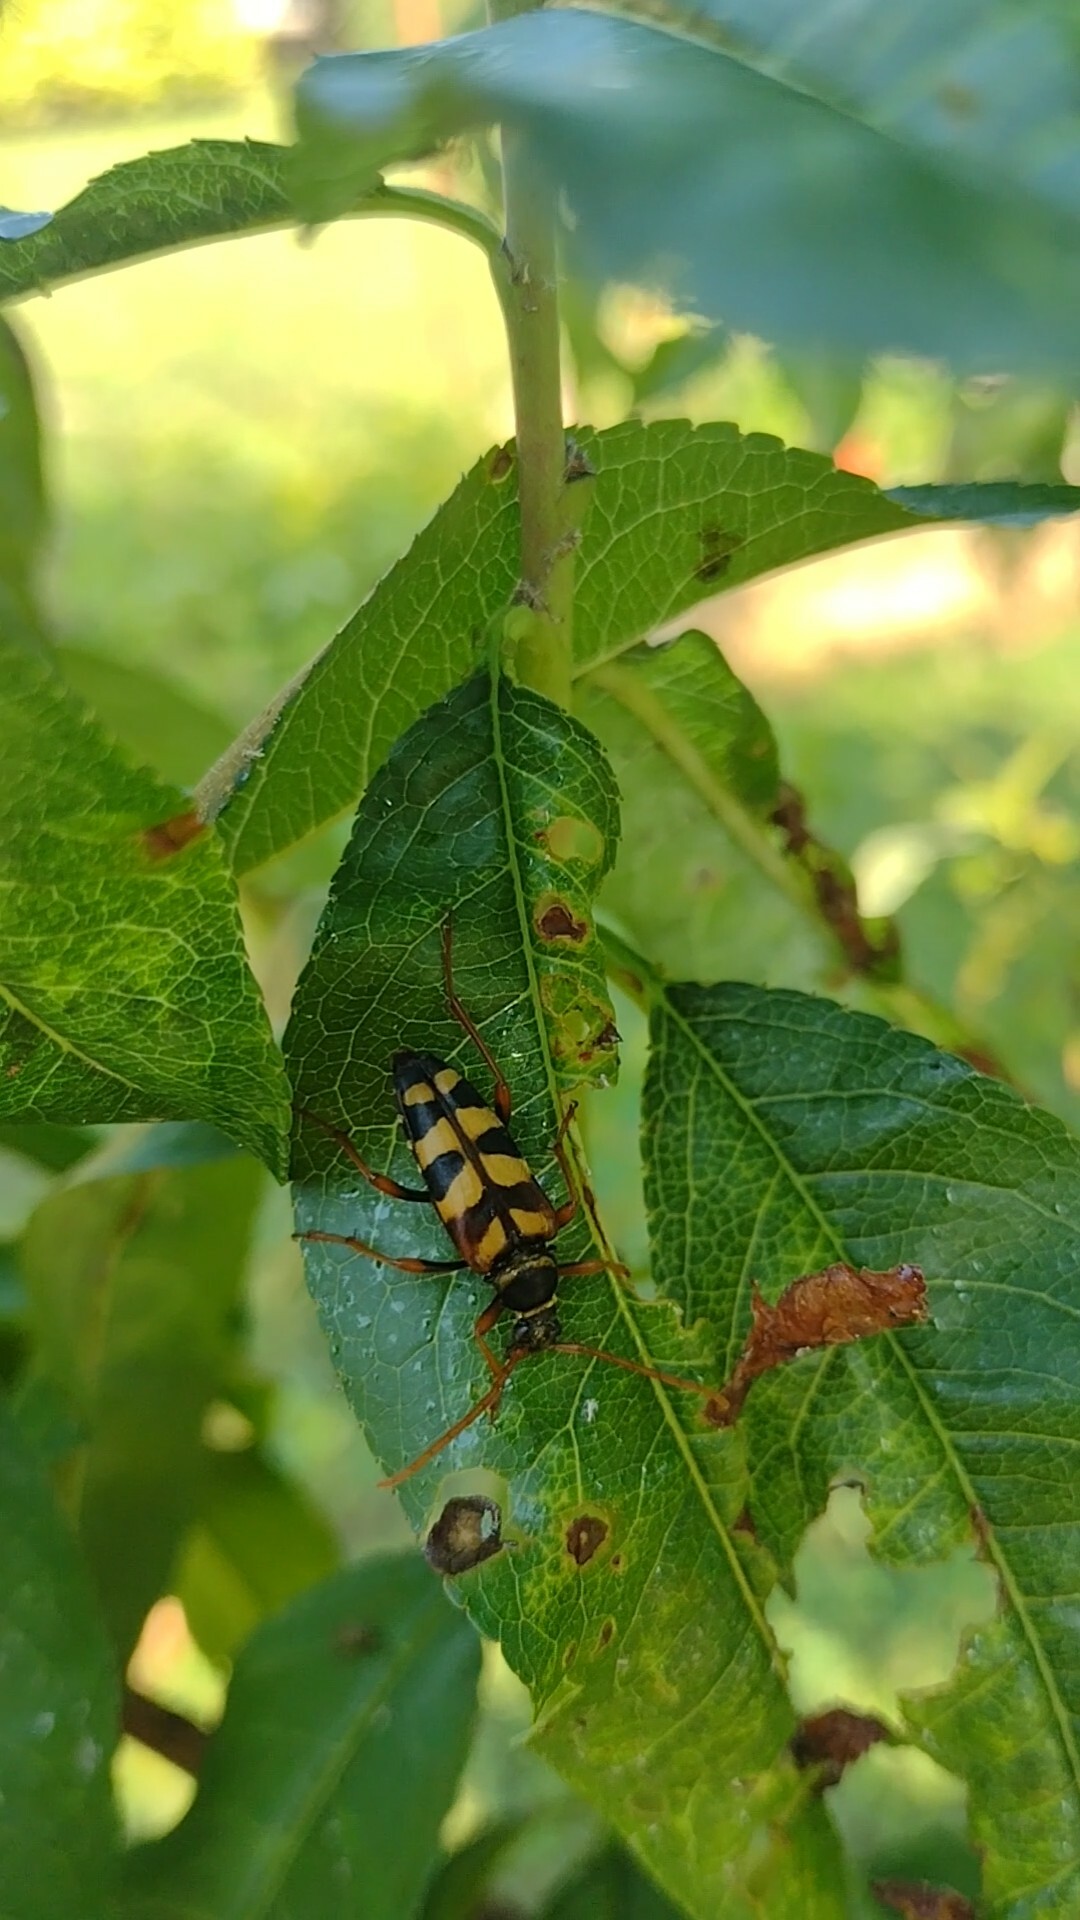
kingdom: Animalia
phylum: Arthropoda
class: Insecta
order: Coleoptera
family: Cerambycidae
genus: Leptura
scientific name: Leptura aurulenta
